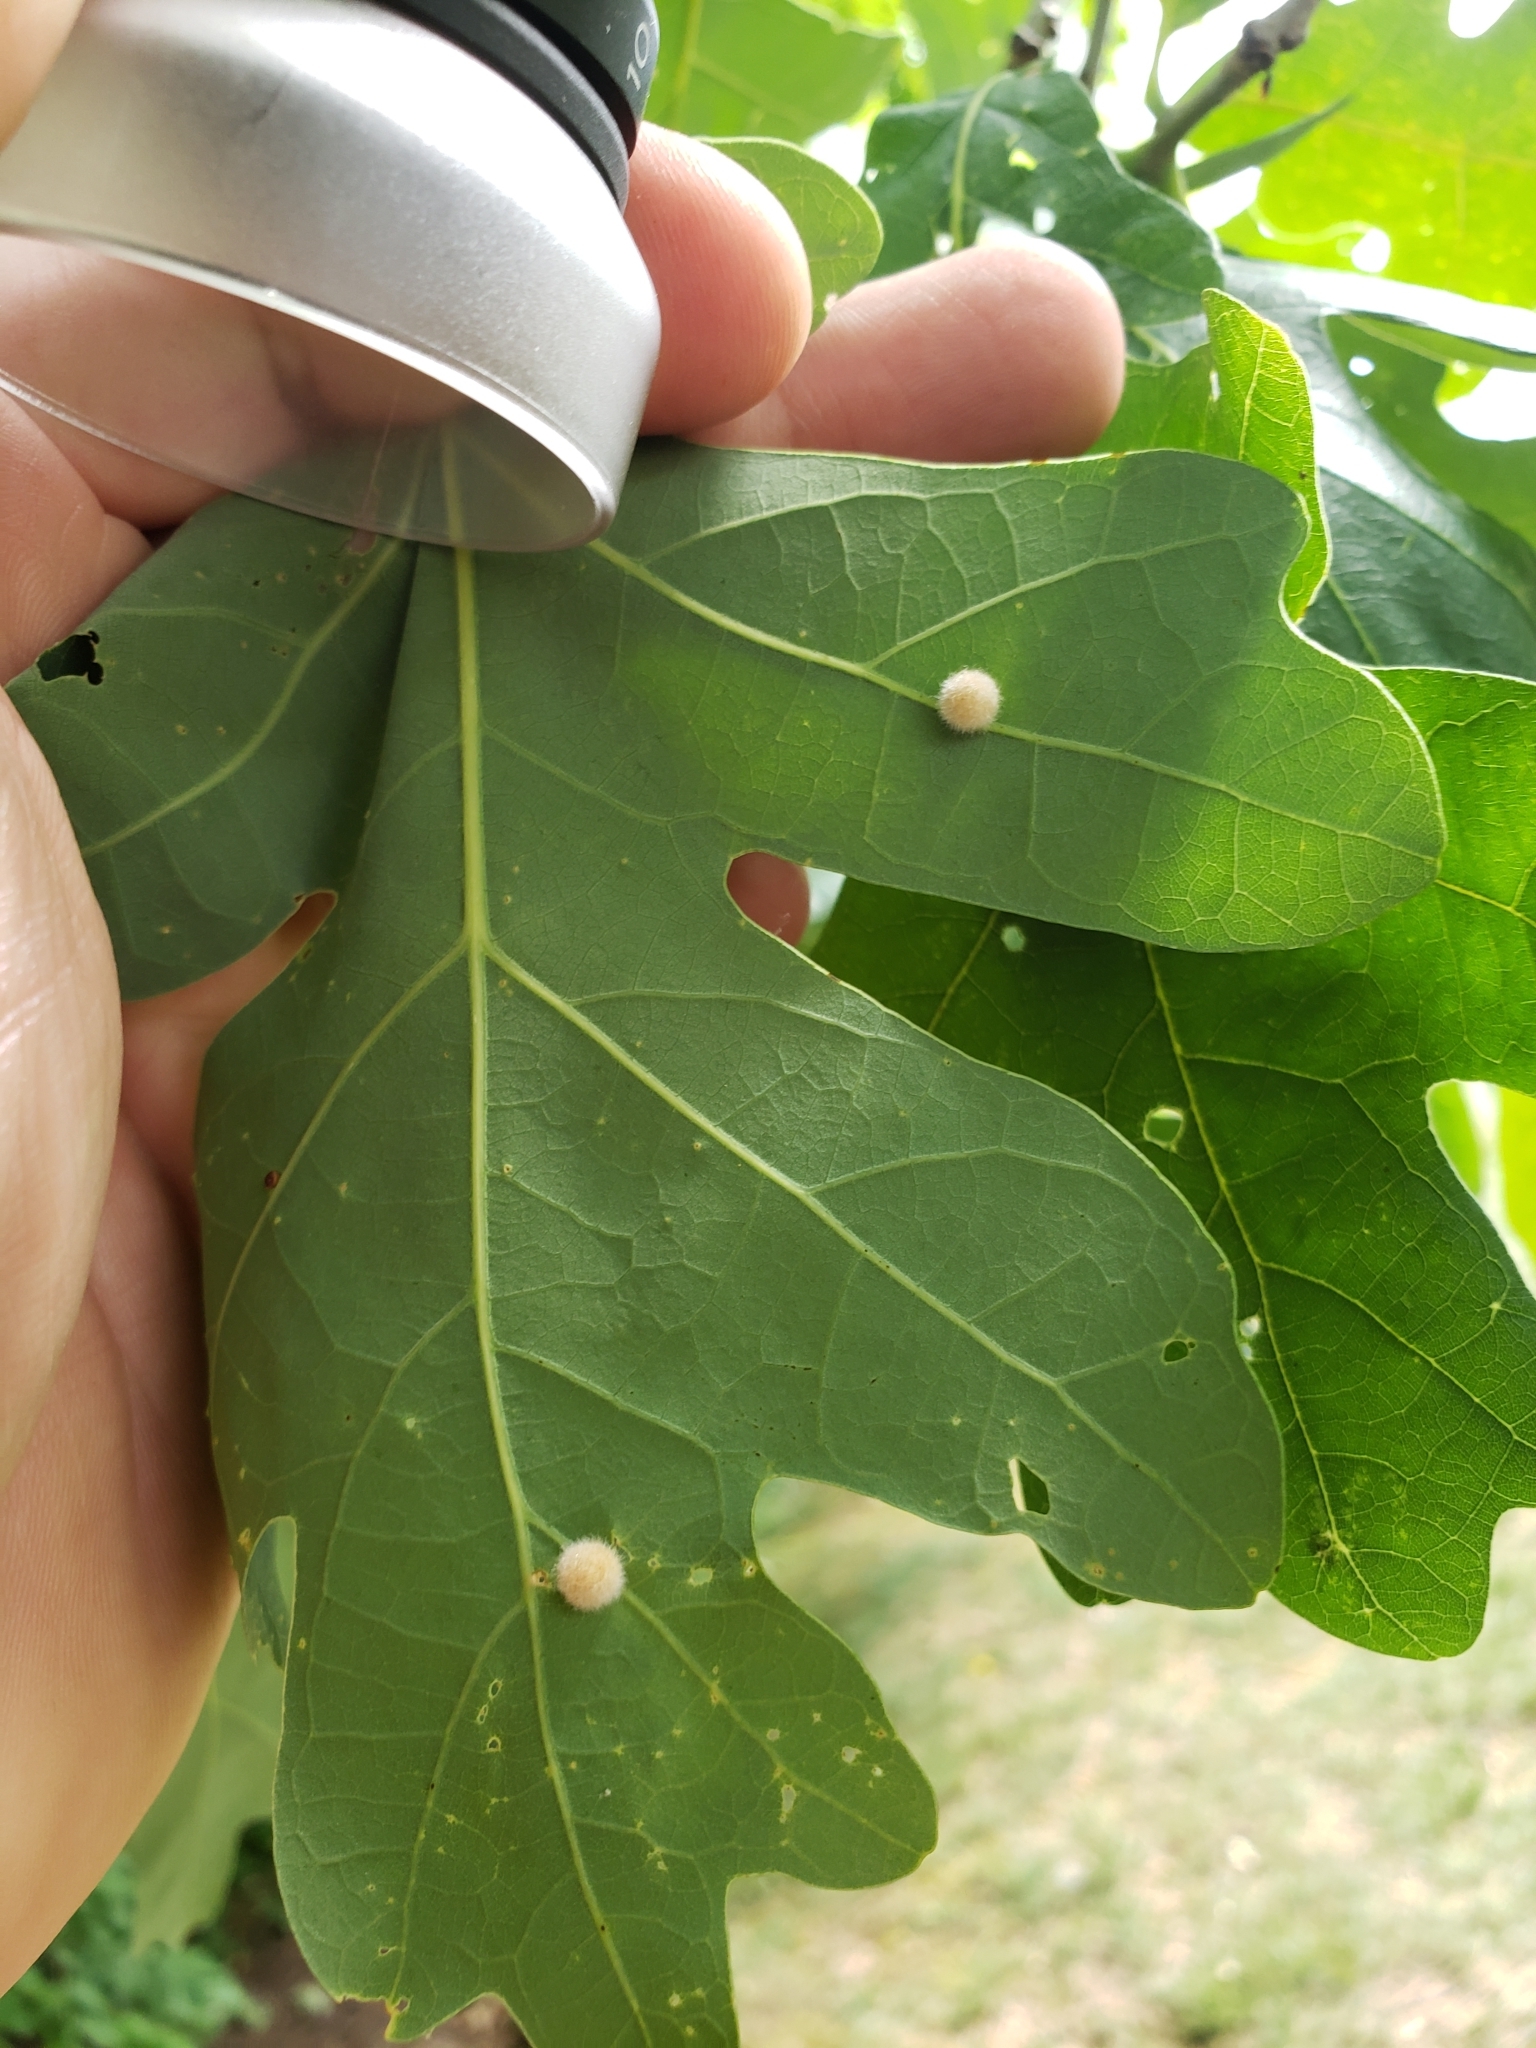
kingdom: Animalia
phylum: Arthropoda
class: Insecta
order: Hymenoptera
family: Cynipidae
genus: Philonix
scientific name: Philonix fulvicollis
